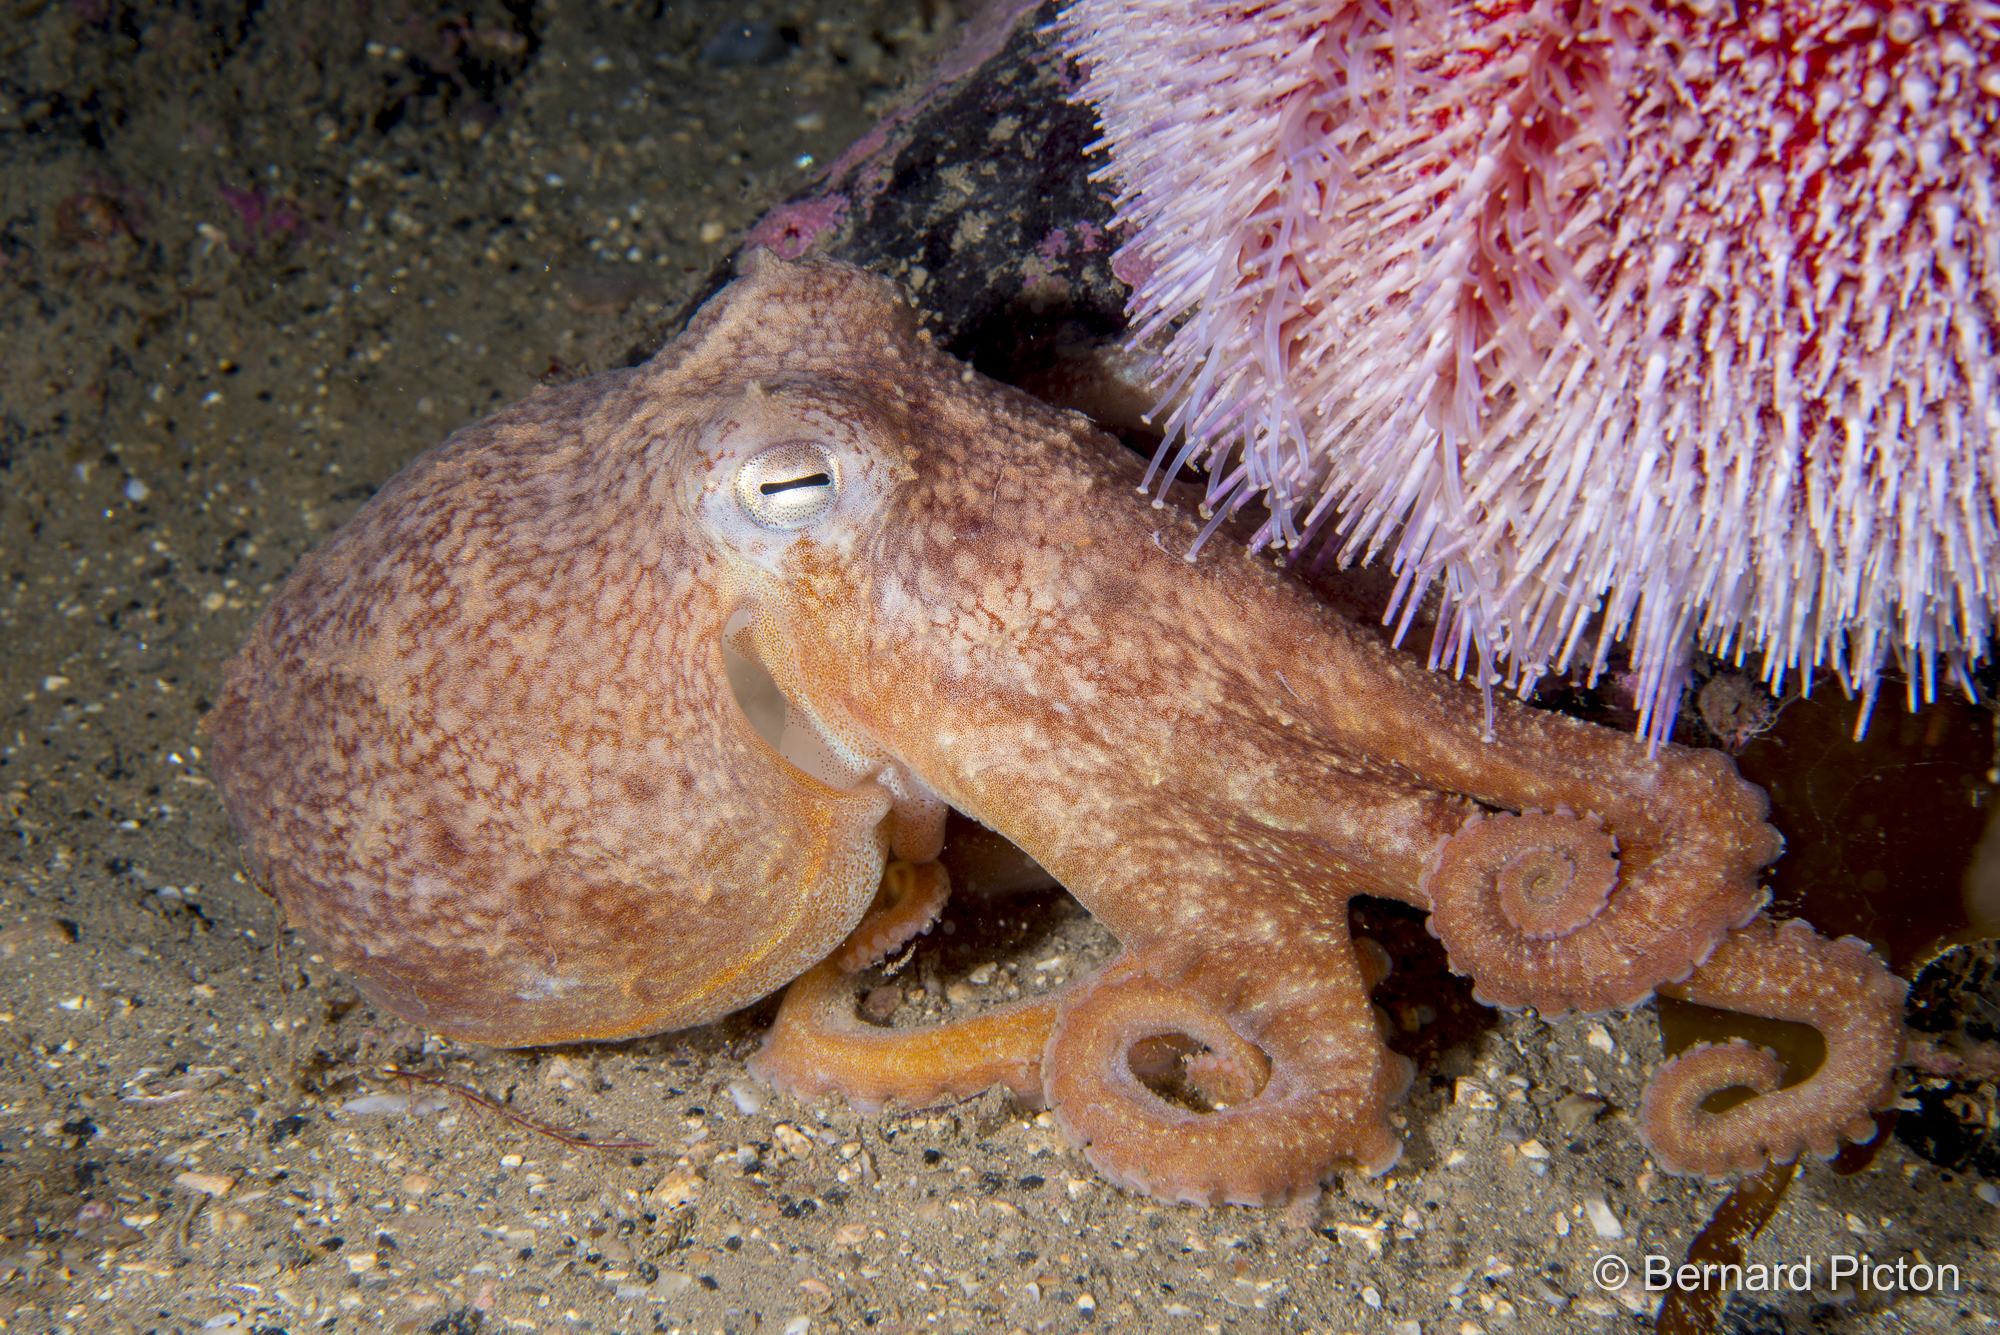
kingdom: Animalia
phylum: Mollusca
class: Cephalopoda
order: Octopoda
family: Eledonidae
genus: Eledone
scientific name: Eledone cirrhosa
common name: Curled octopus
